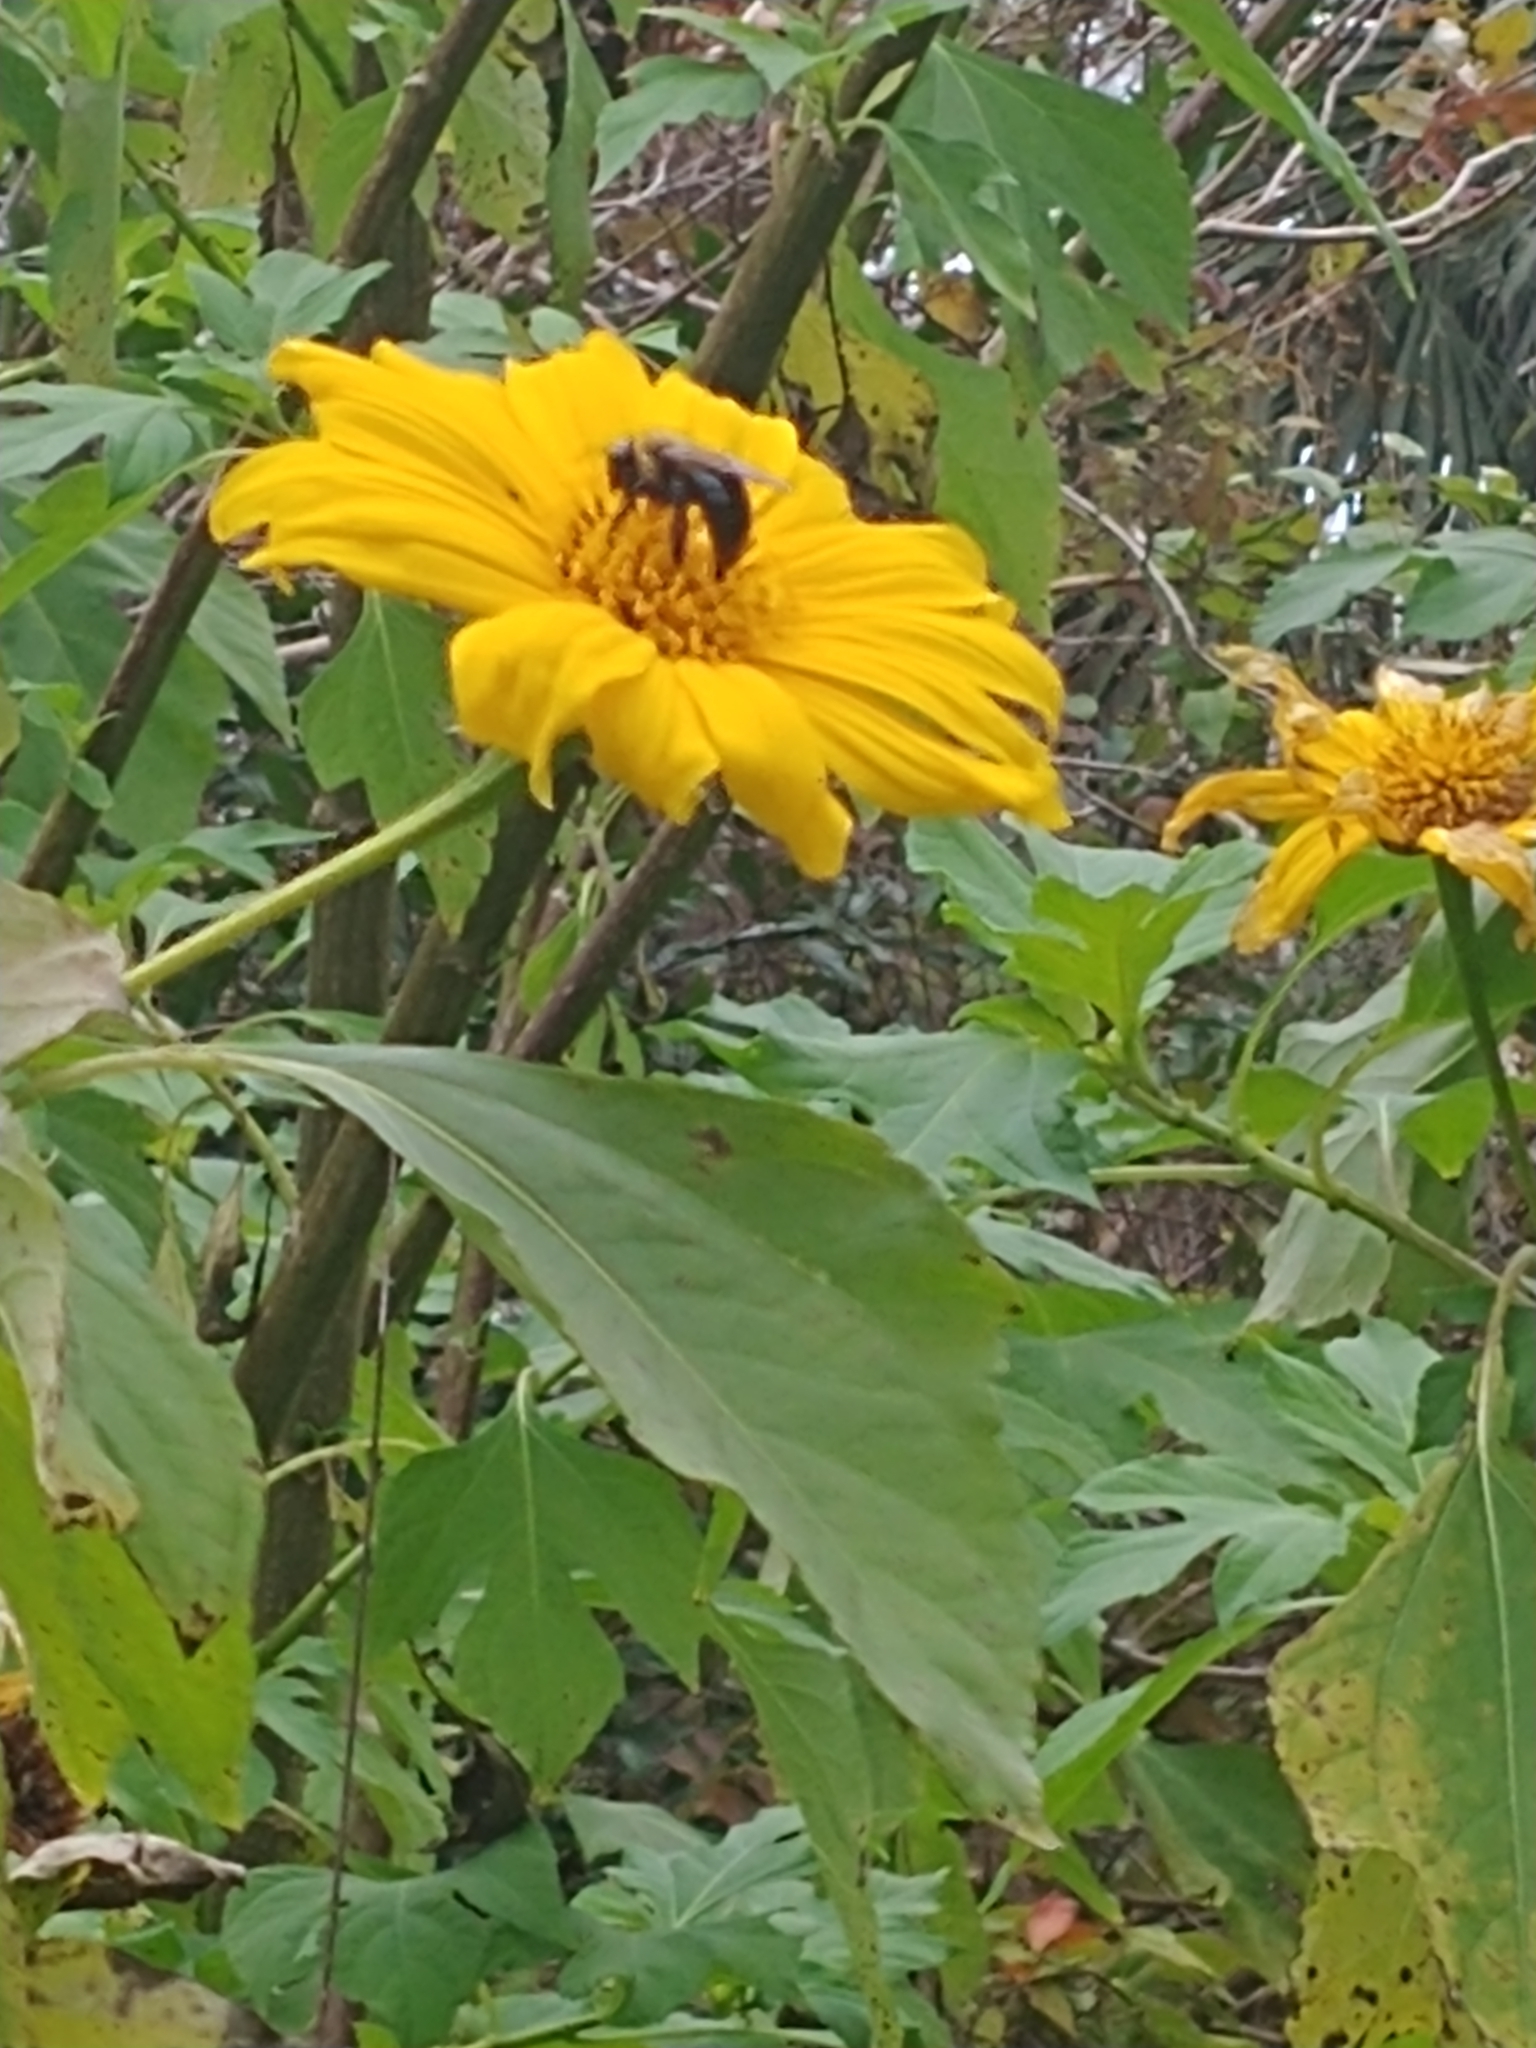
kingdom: Animalia
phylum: Arthropoda
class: Insecta
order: Hymenoptera
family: Apidae
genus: Xylocopa
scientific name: Xylocopa virginica
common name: Carpenter bee
